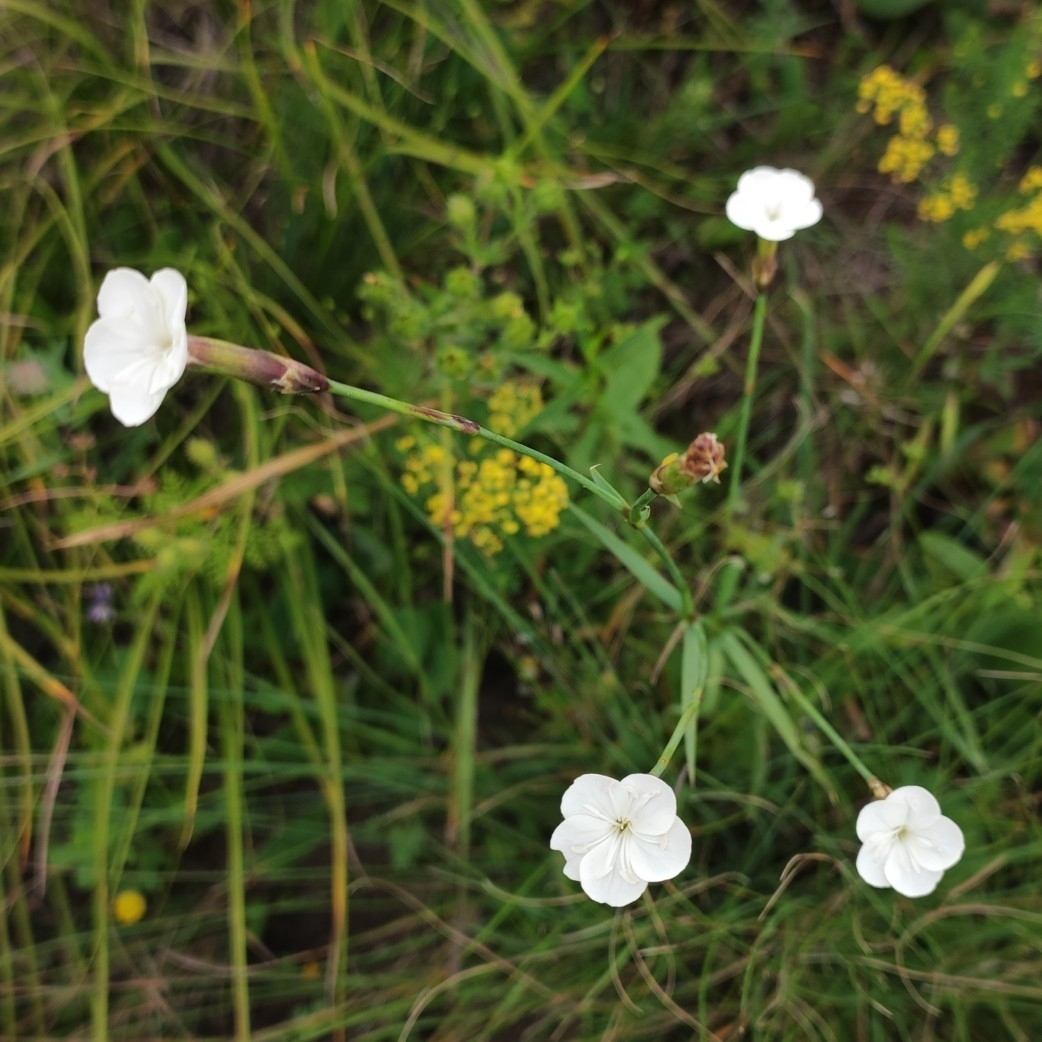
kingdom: Plantae
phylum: Tracheophyta
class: Magnoliopsida
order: Caryophyllales
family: Caryophyllaceae
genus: Dianthus
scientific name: Dianthus cretaceus
